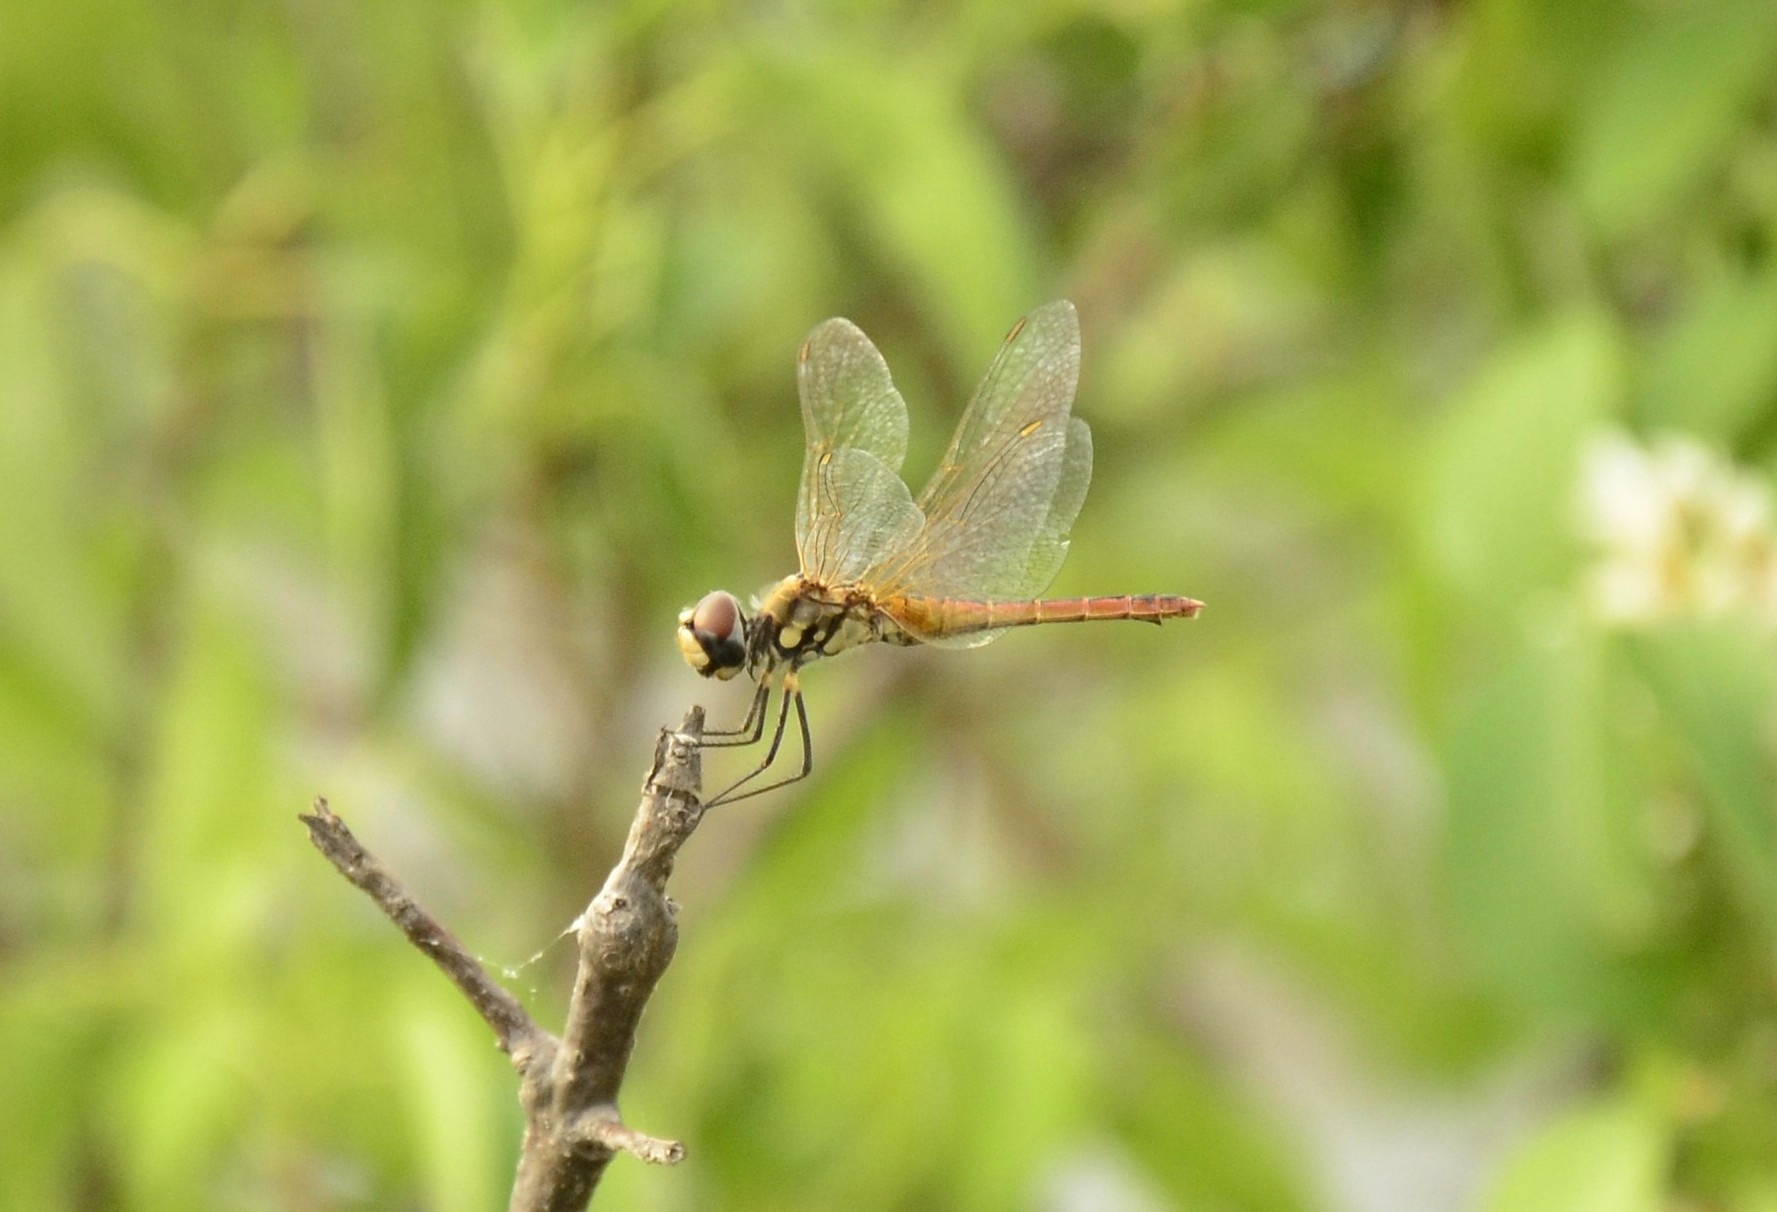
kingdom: Animalia
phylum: Arthropoda
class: Insecta
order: Odonata
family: Libellulidae
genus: Macrodiplax
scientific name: Macrodiplax cora
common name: Coastal glider
